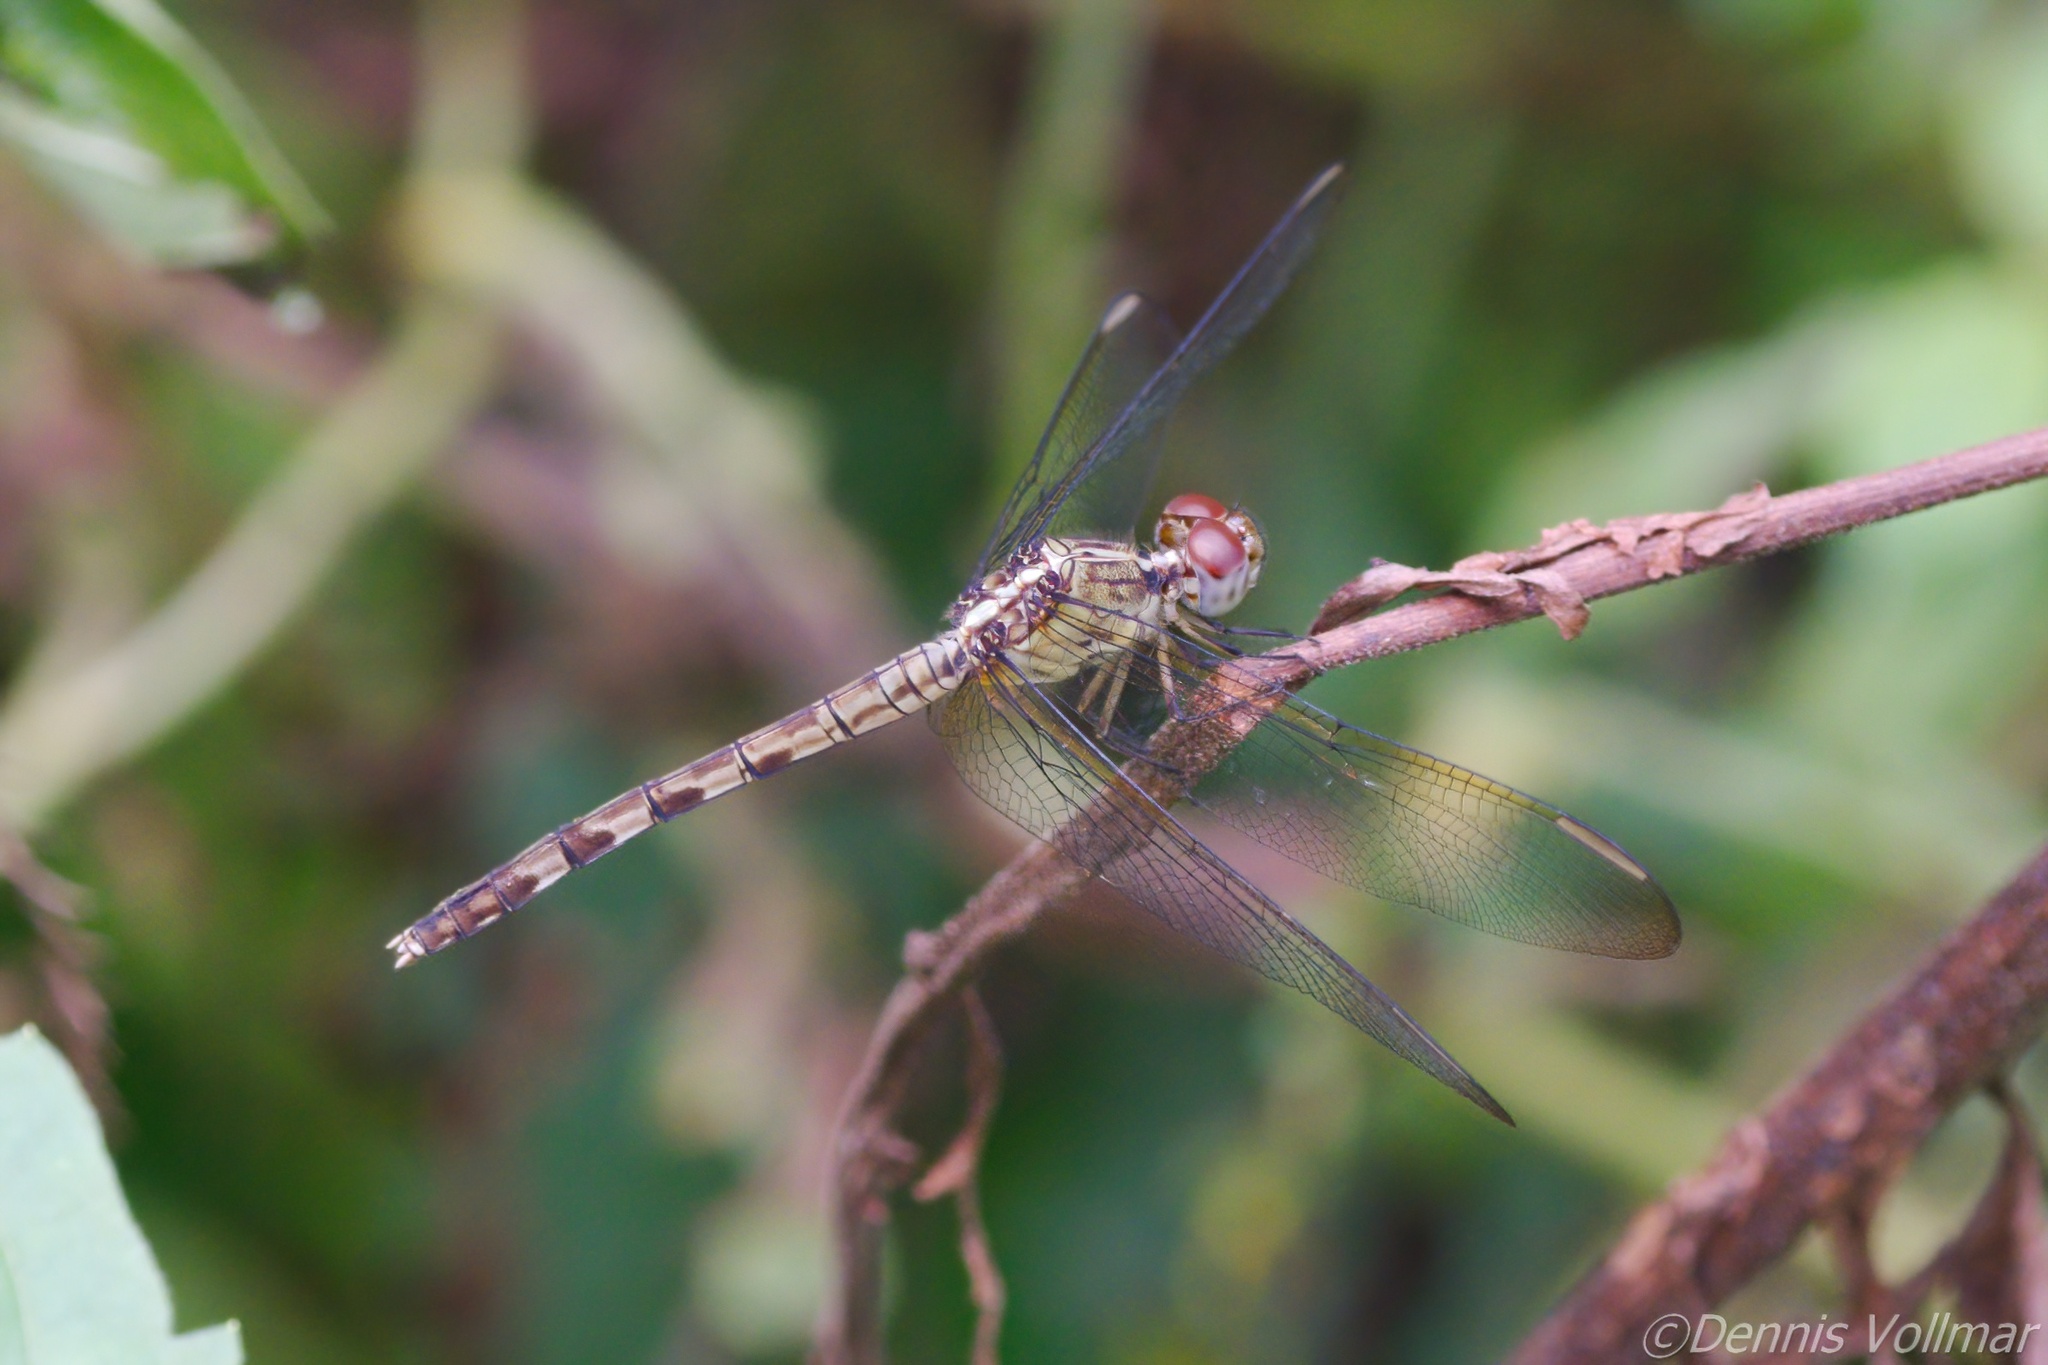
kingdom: Animalia
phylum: Arthropoda
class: Insecta
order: Odonata
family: Libellulidae
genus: Erythrodiplax
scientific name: Erythrodiplax umbrata
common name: Band-winged dragonlet
